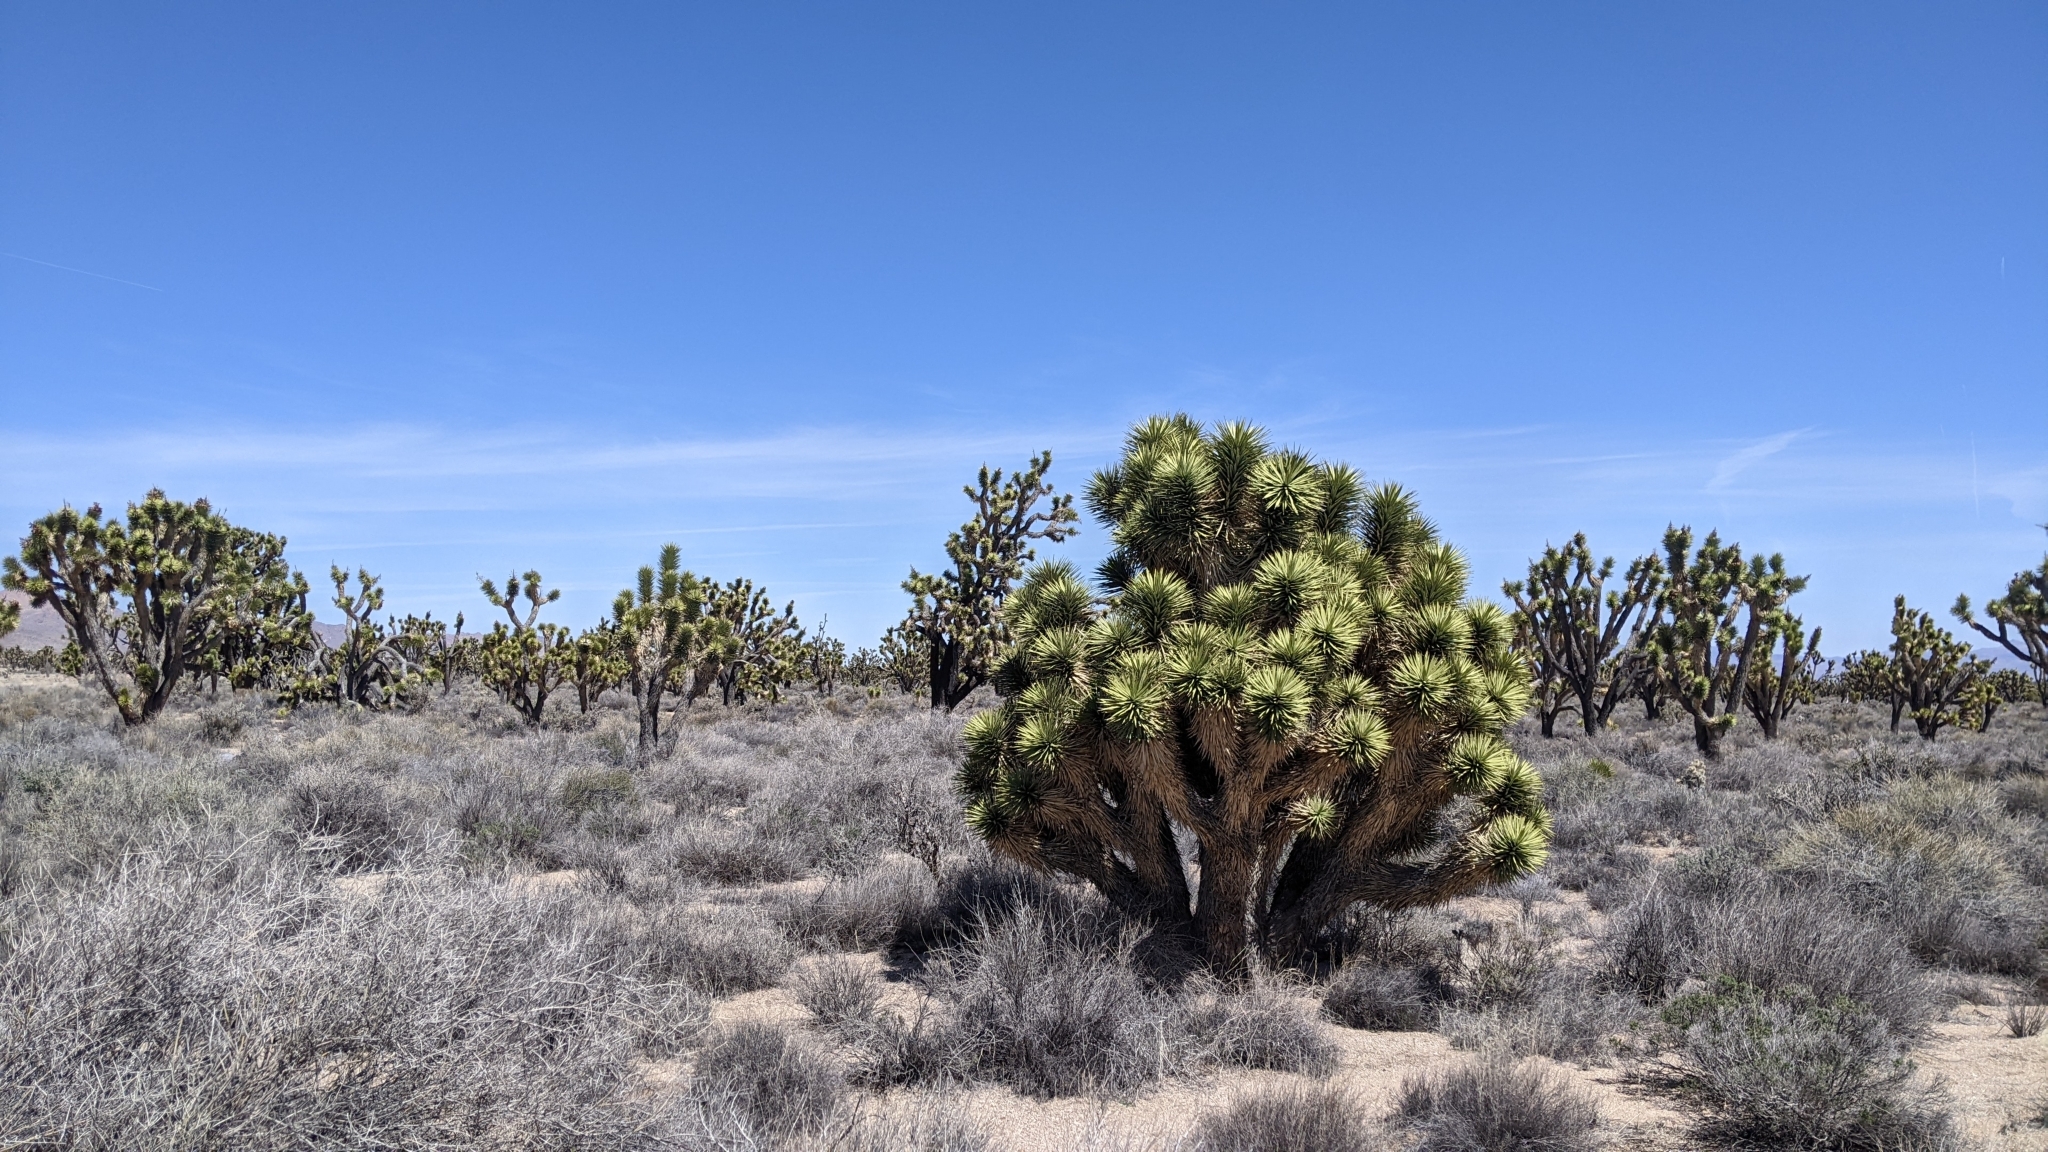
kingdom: Plantae
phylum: Tracheophyta
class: Liliopsida
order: Asparagales
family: Asparagaceae
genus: Yucca
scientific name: Yucca brevifolia
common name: Joshua tree
